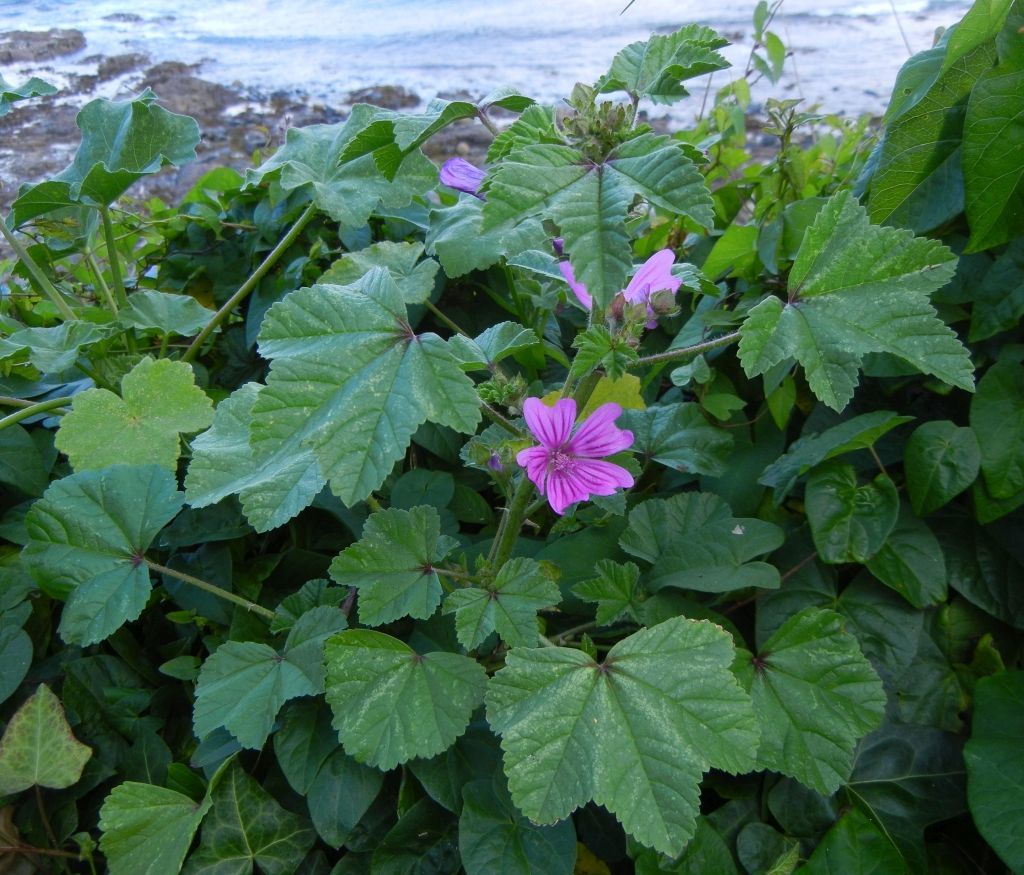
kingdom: Plantae
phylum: Tracheophyta
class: Magnoliopsida
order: Malvales
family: Malvaceae
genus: Malva
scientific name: Malva sylvestris
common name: Common mallow
